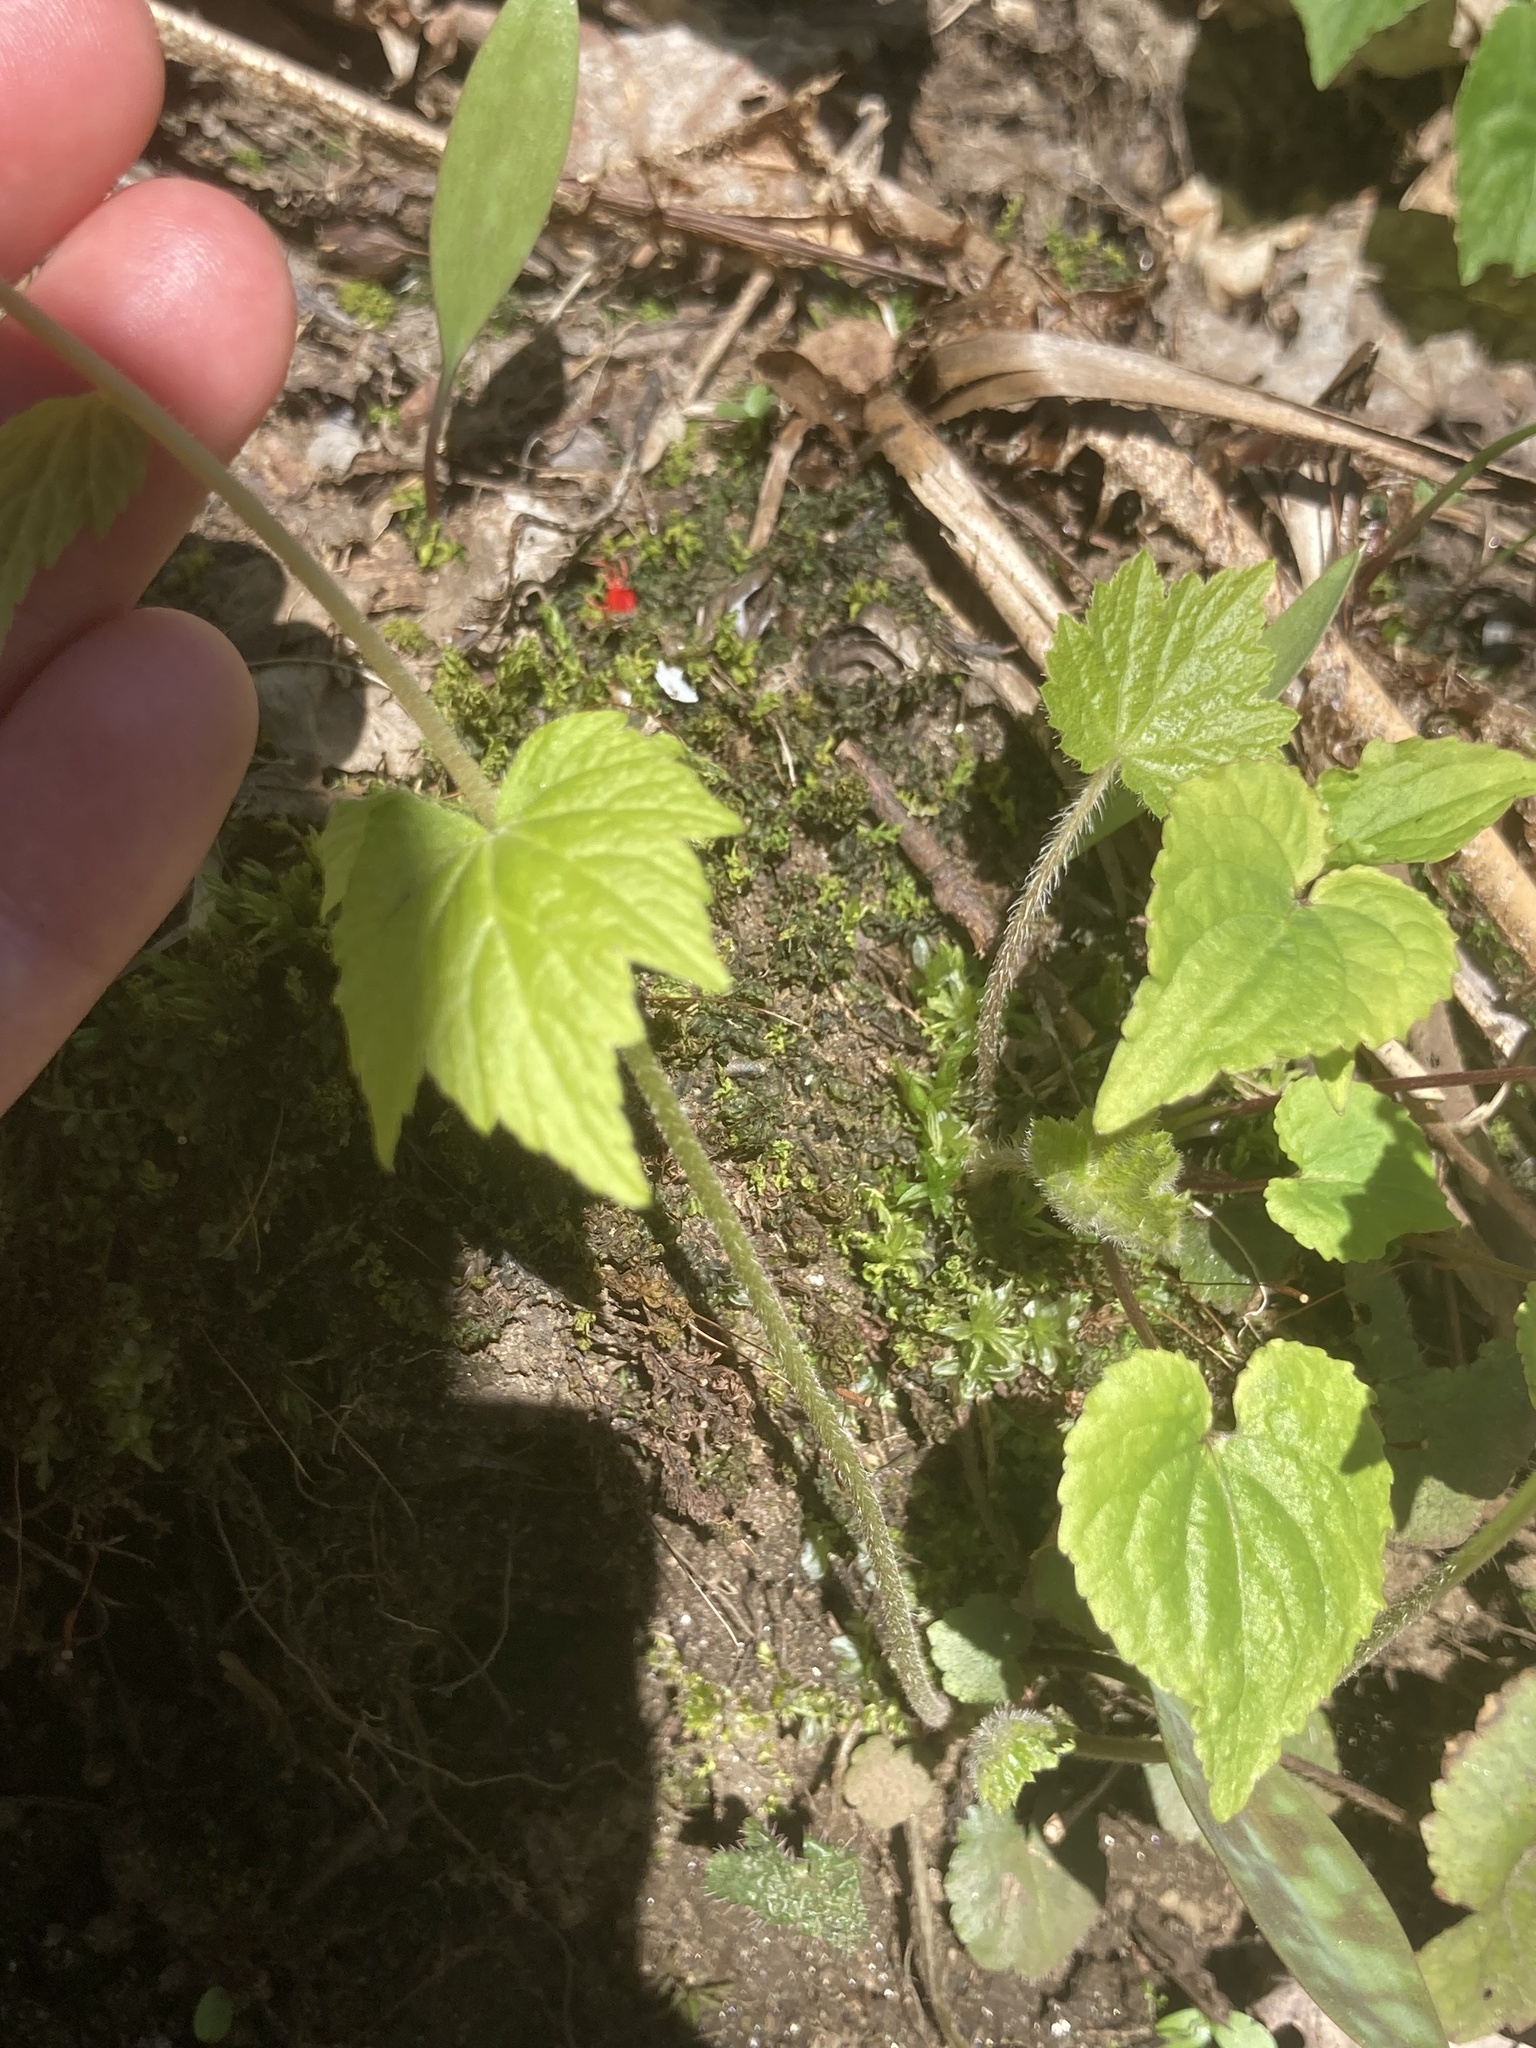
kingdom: Plantae
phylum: Tracheophyta
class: Magnoliopsida
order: Saxifragales
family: Saxifragaceae
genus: Mitella
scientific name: Mitella diphylla
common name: Coolwort
